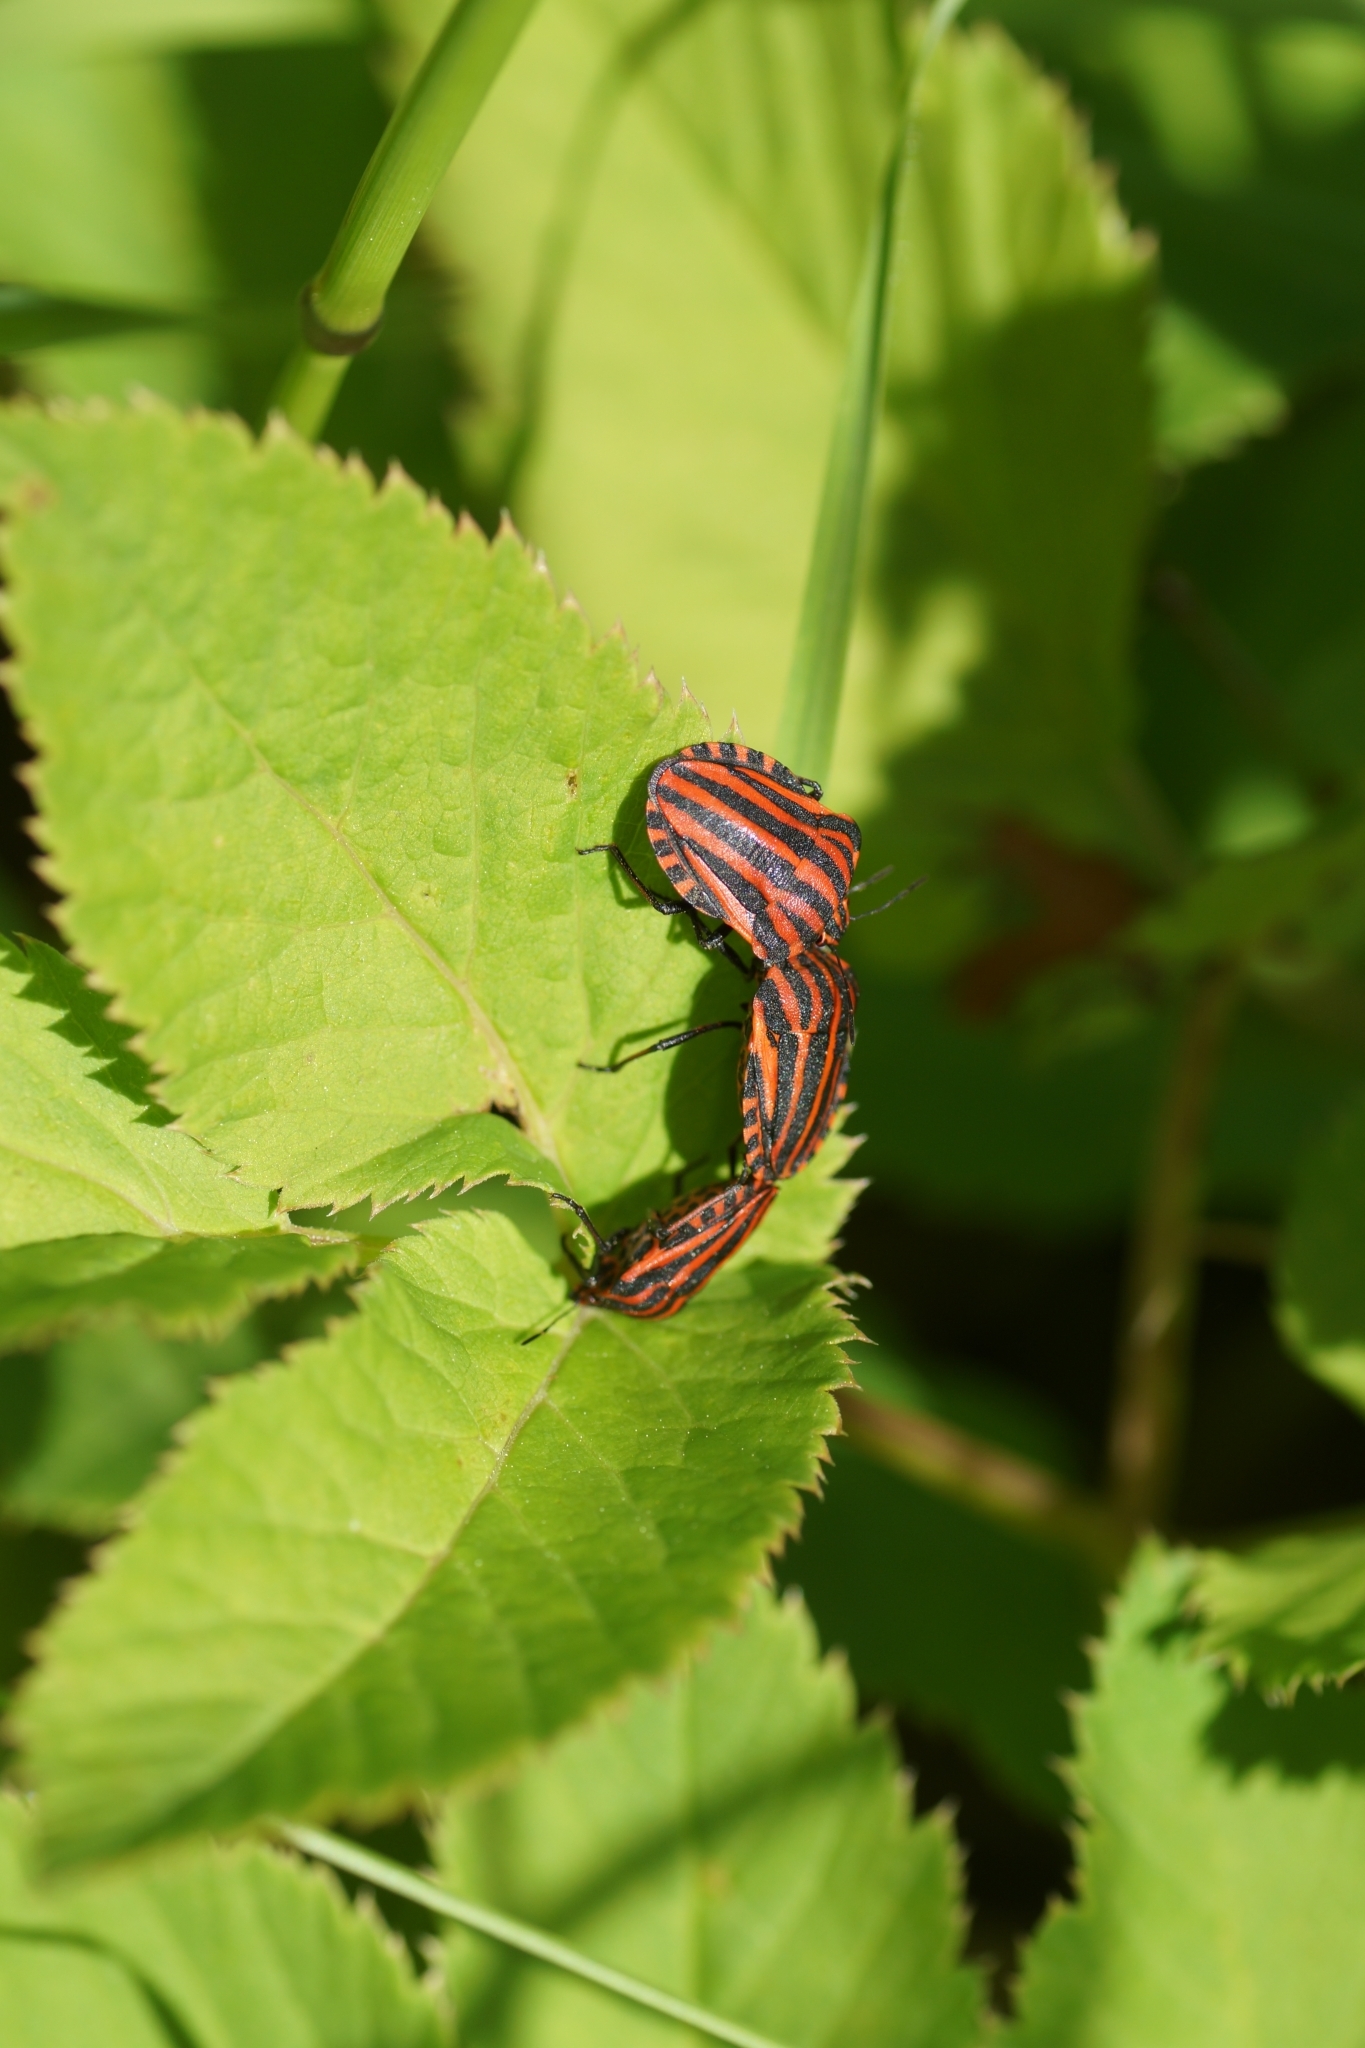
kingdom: Animalia
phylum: Arthropoda
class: Insecta
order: Hemiptera
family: Pentatomidae
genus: Graphosoma
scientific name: Graphosoma italicum
